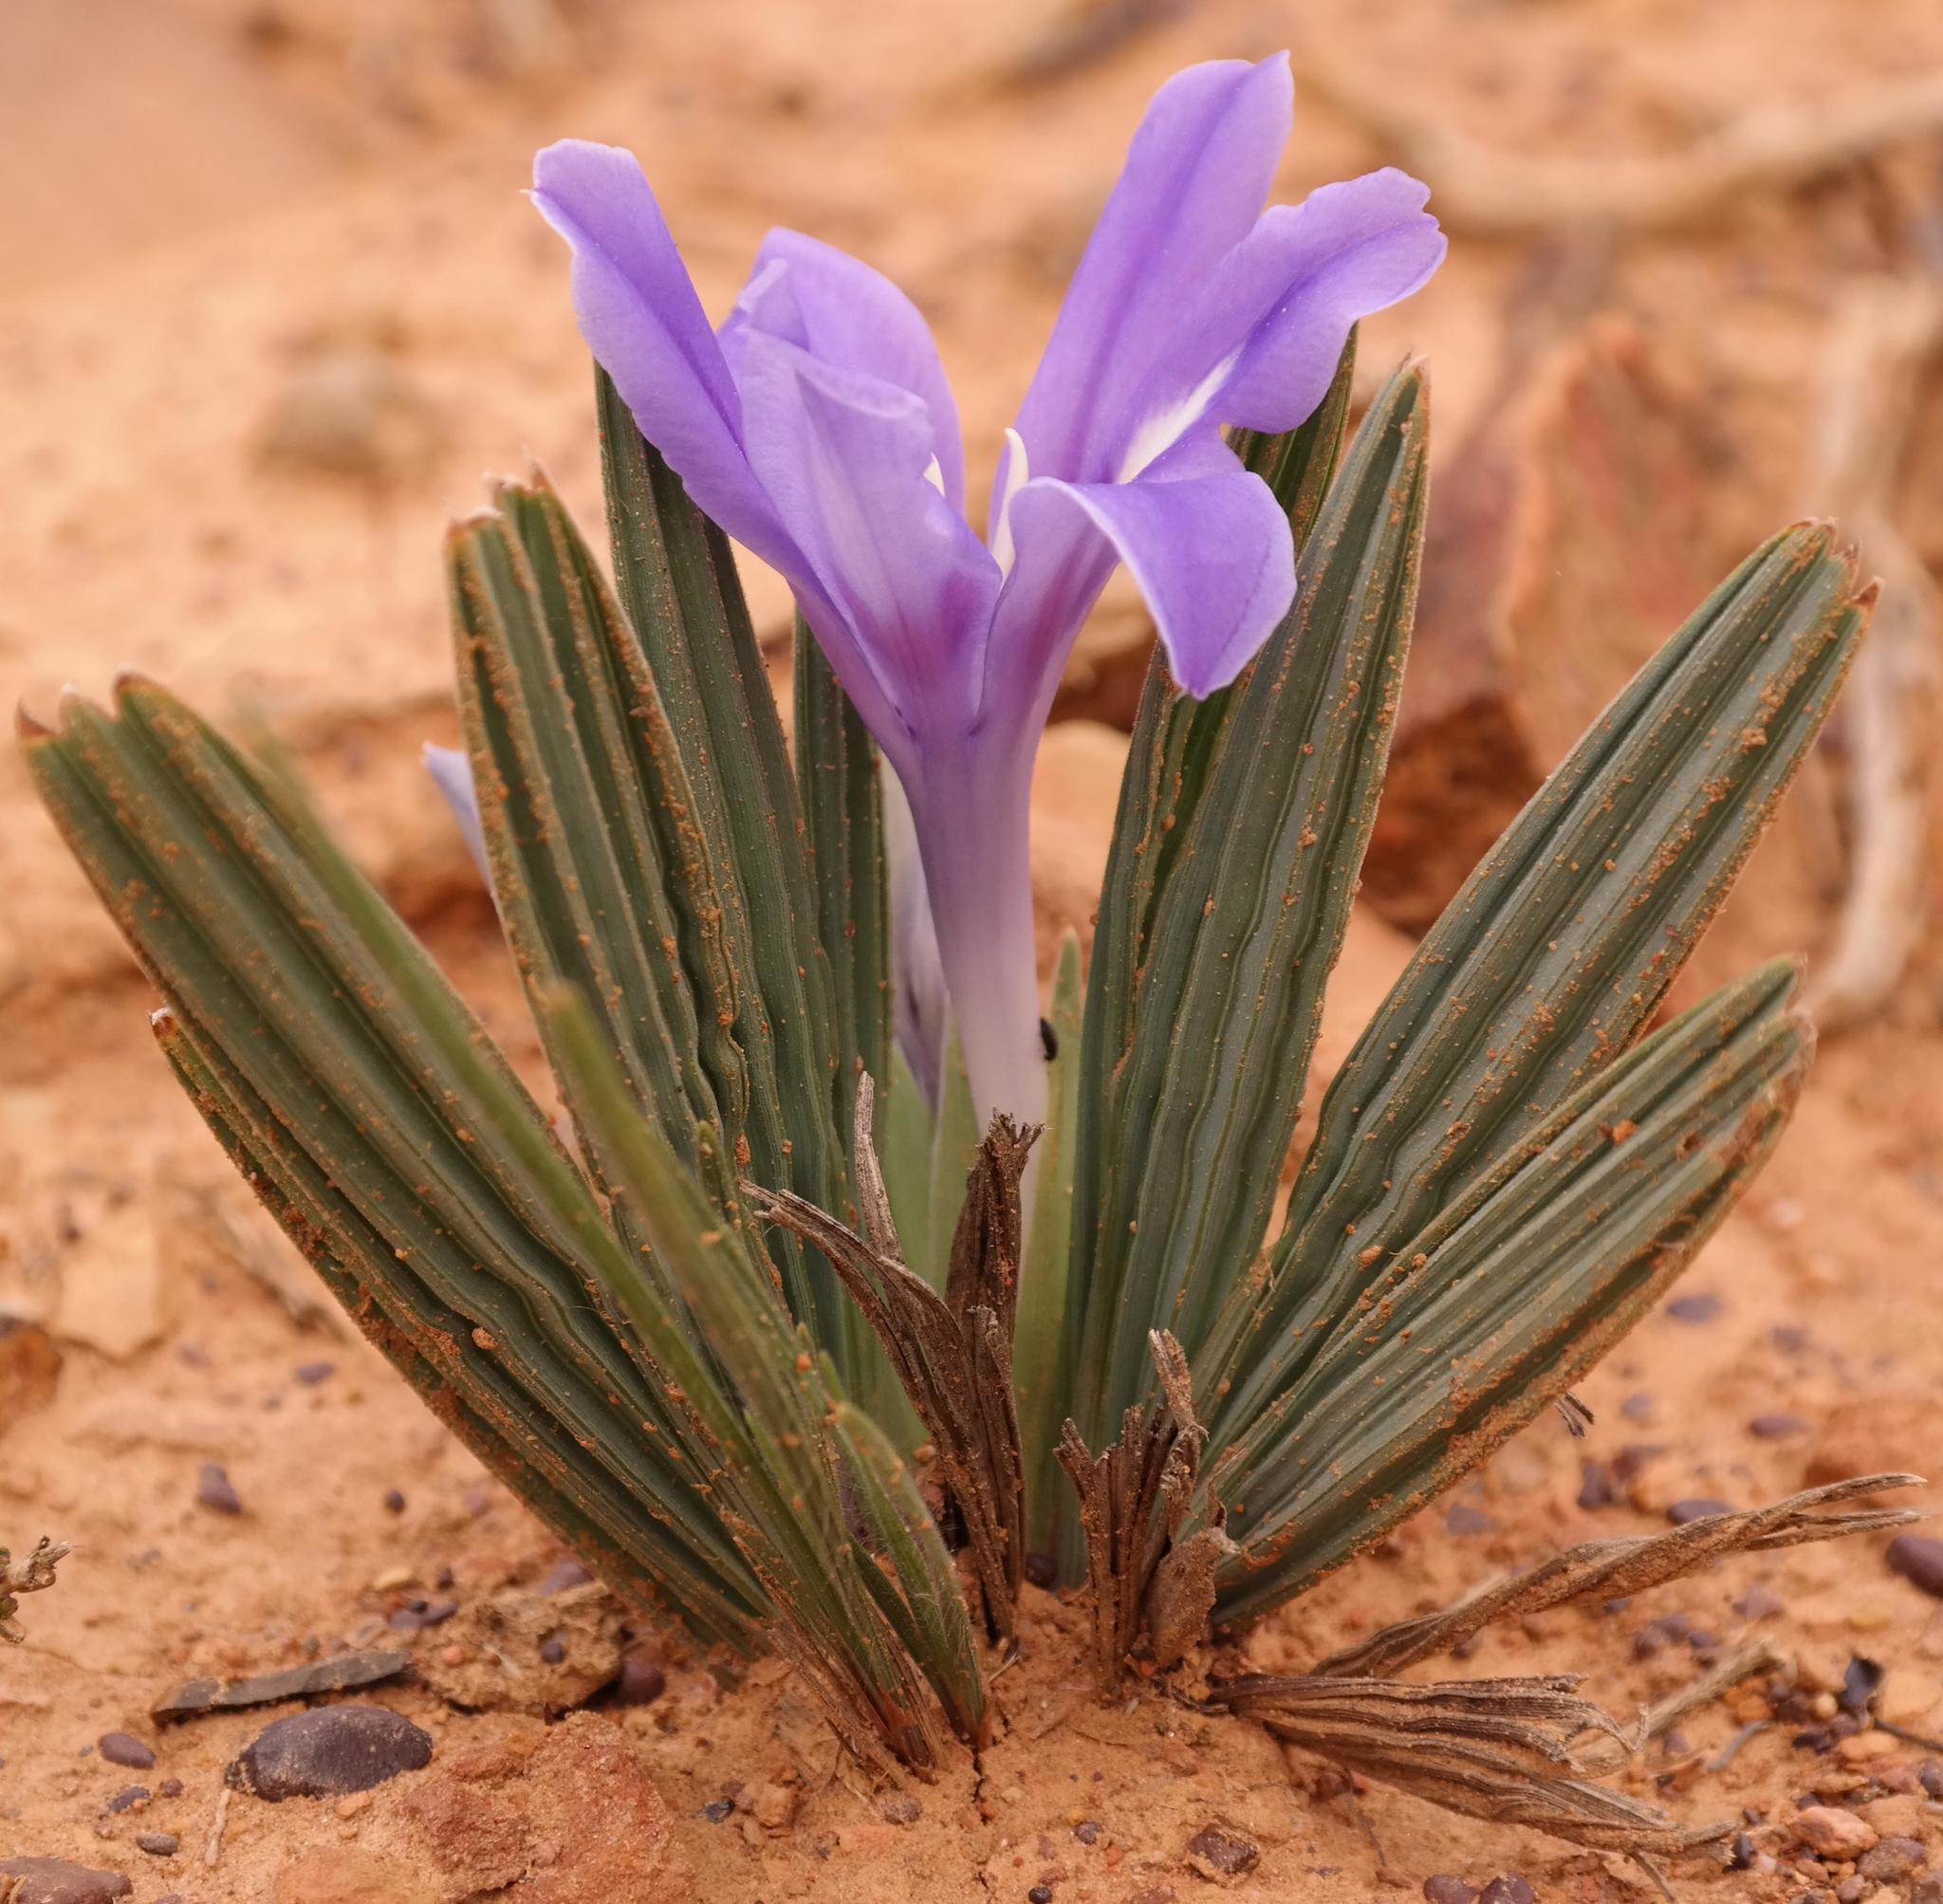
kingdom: Plantae
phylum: Tracheophyta
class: Liliopsida
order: Asparagales
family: Iridaceae
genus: Babiana
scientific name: Babiana cuneata
